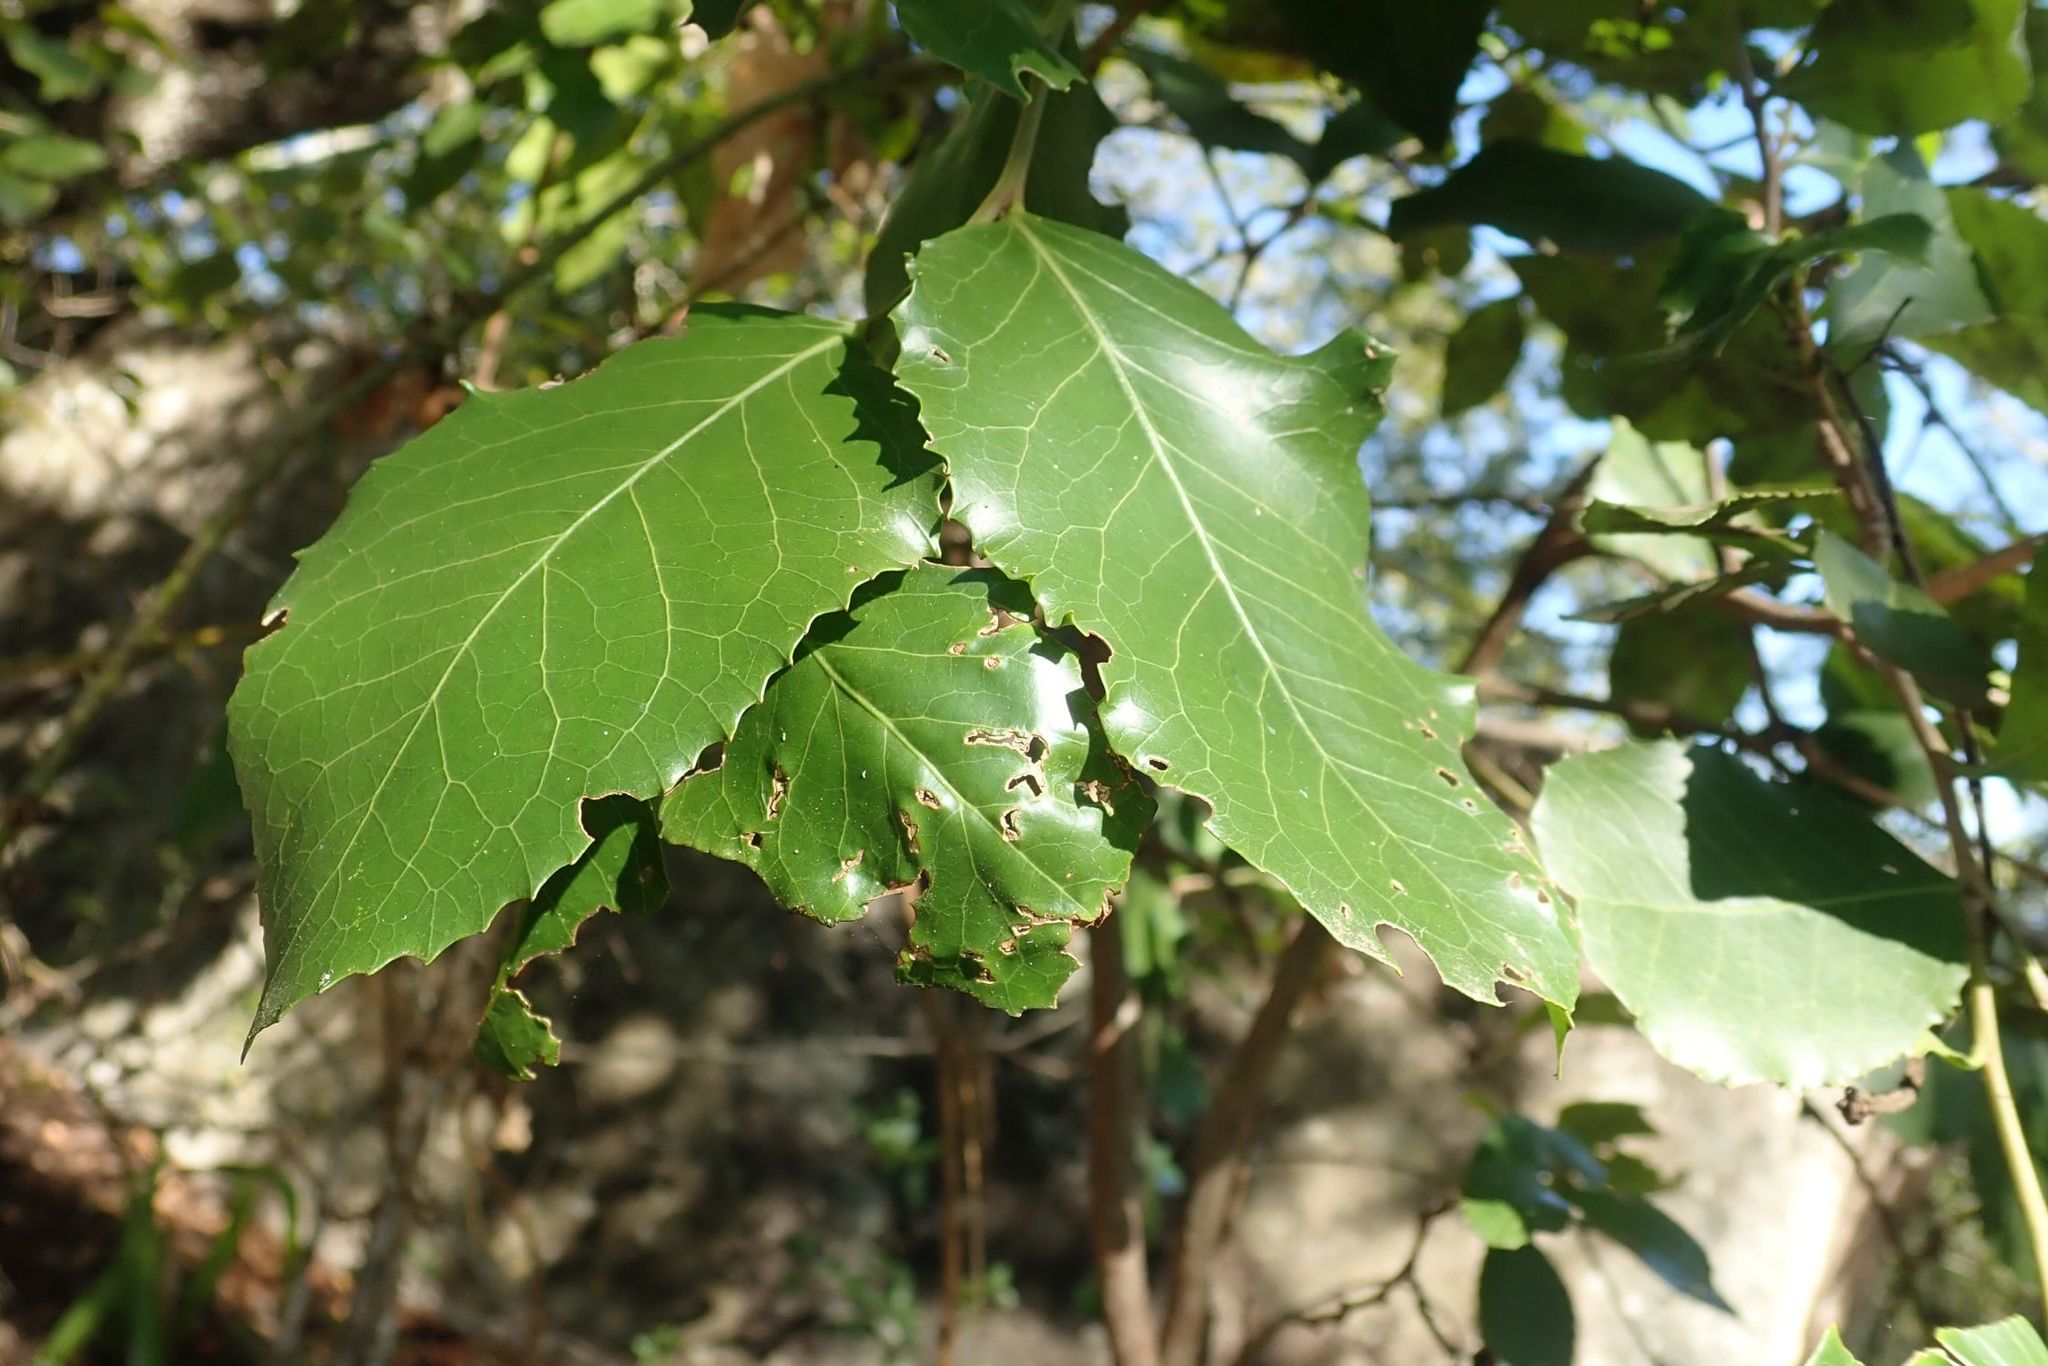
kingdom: Plantae
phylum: Tracheophyta
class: Magnoliopsida
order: Celastrales
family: Celastraceae
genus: Gymnosporia
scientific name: Gymnosporia undata
